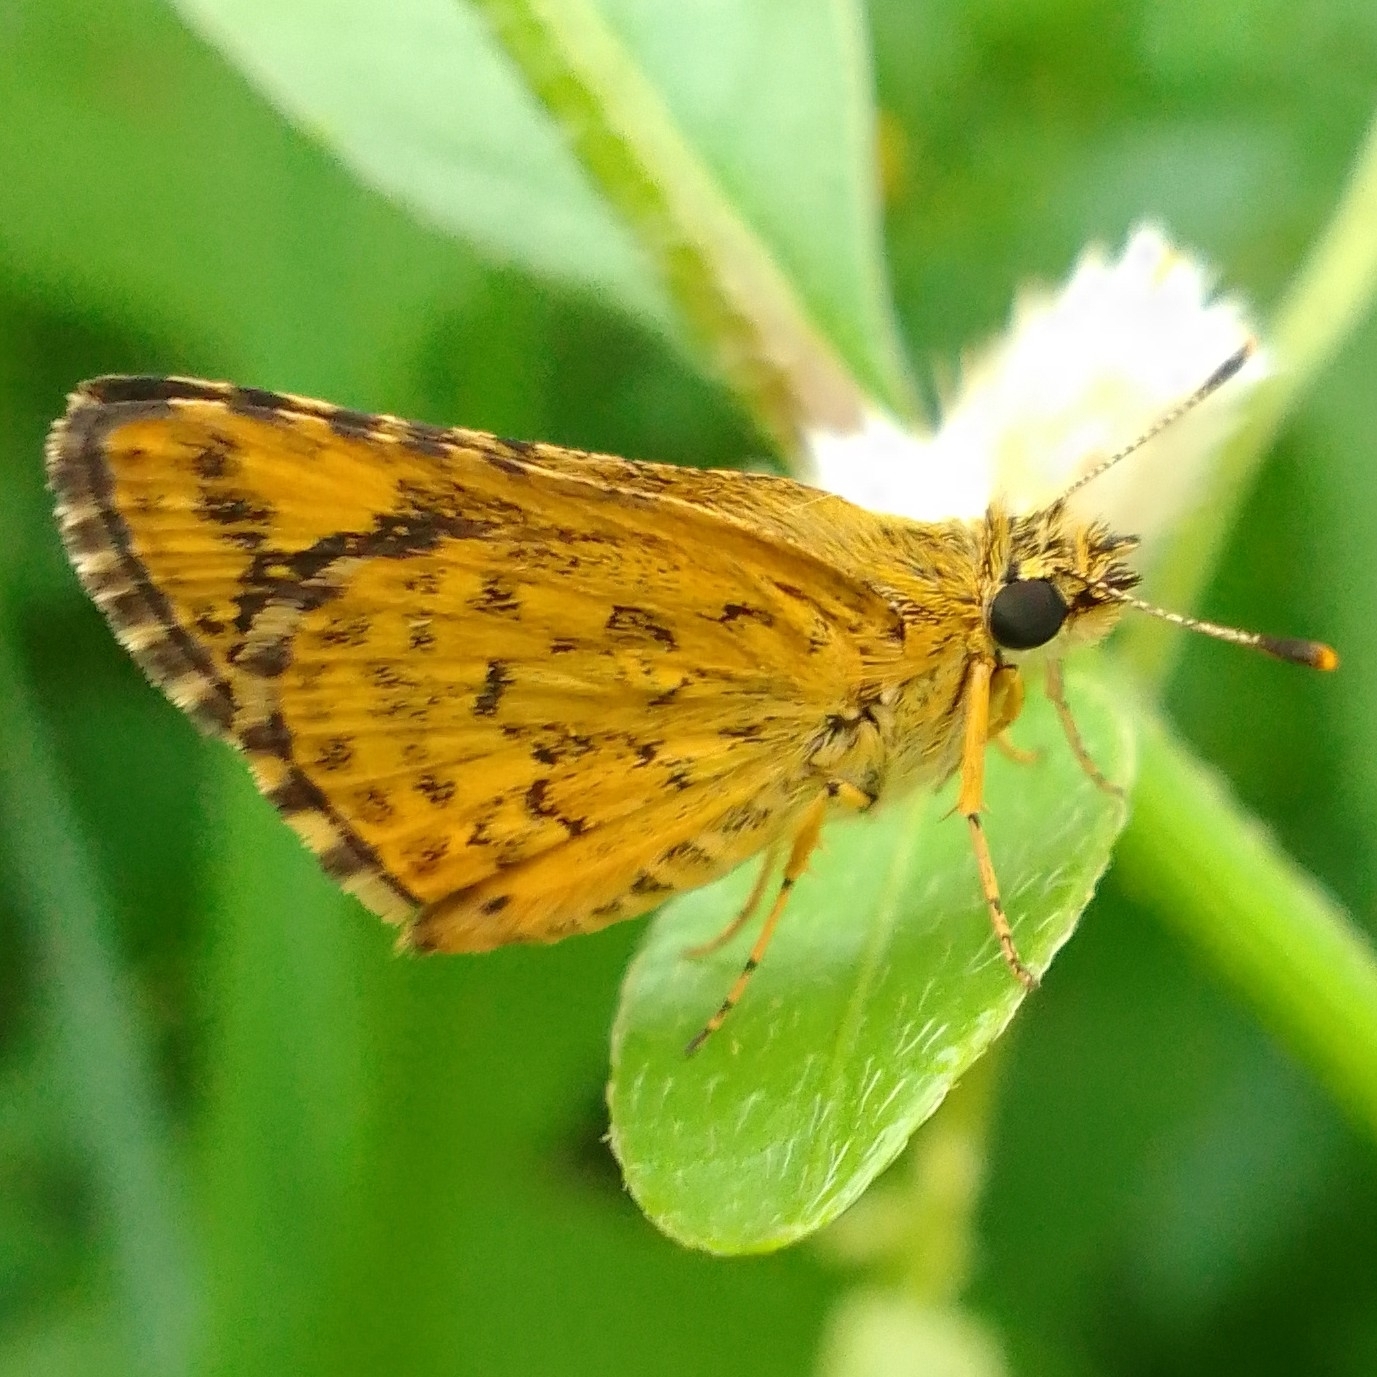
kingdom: Animalia
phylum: Arthropoda
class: Insecta
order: Lepidoptera
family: Hesperiidae
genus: Ampittia
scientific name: Ampittia dioscorides
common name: Common bush hopper
